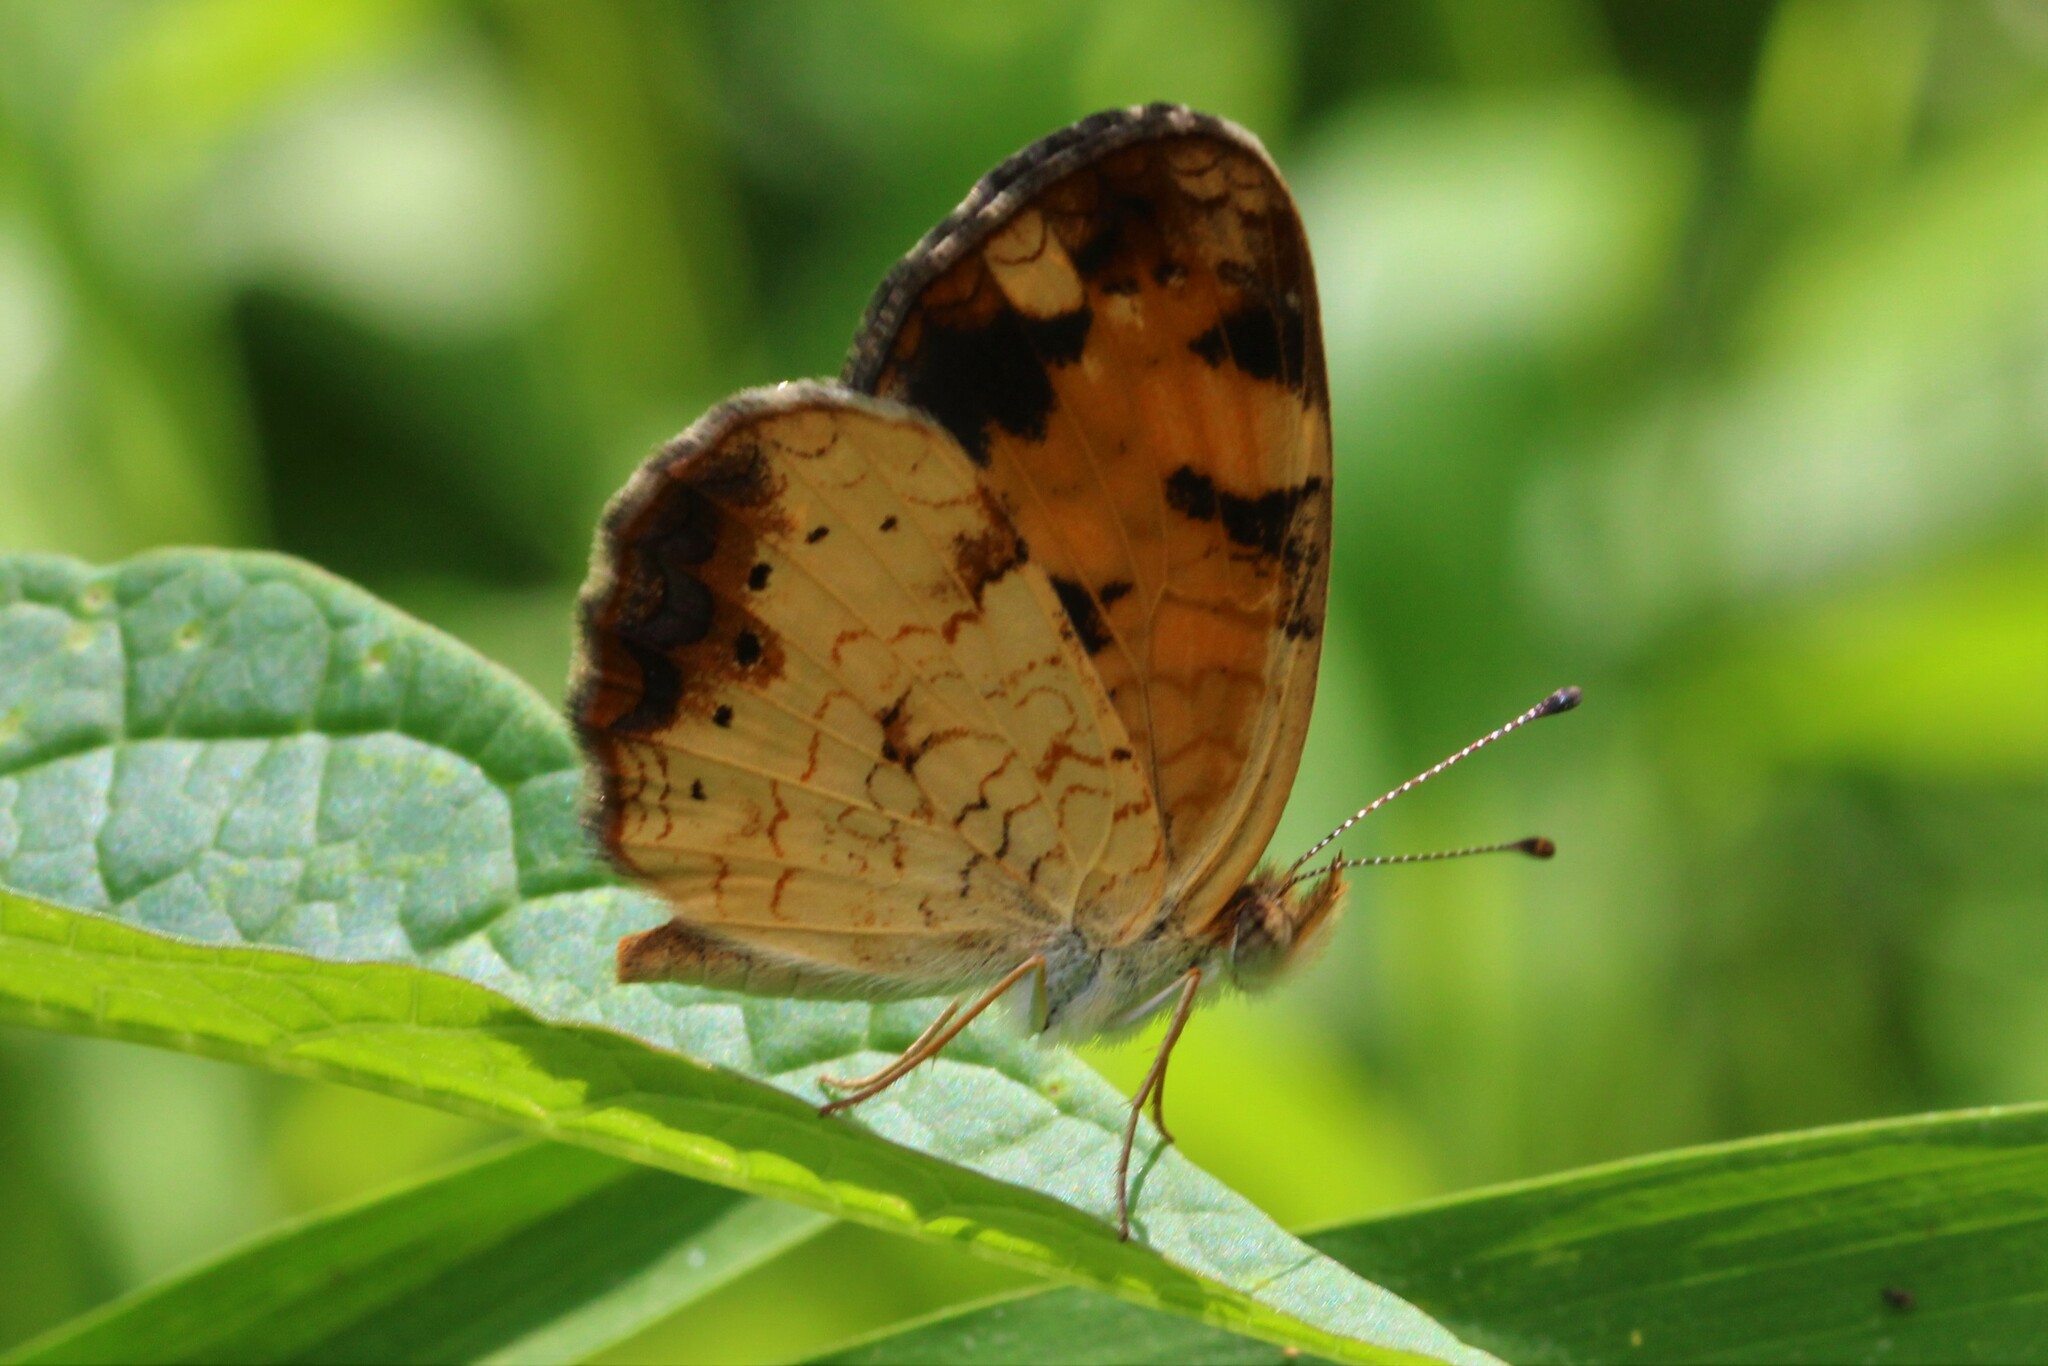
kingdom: Animalia
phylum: Arthropoda
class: Insecta
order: Lepidoptera
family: Nymphalidae
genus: Phyciodes
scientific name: Phyciodes tharos
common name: Pearl crescent
